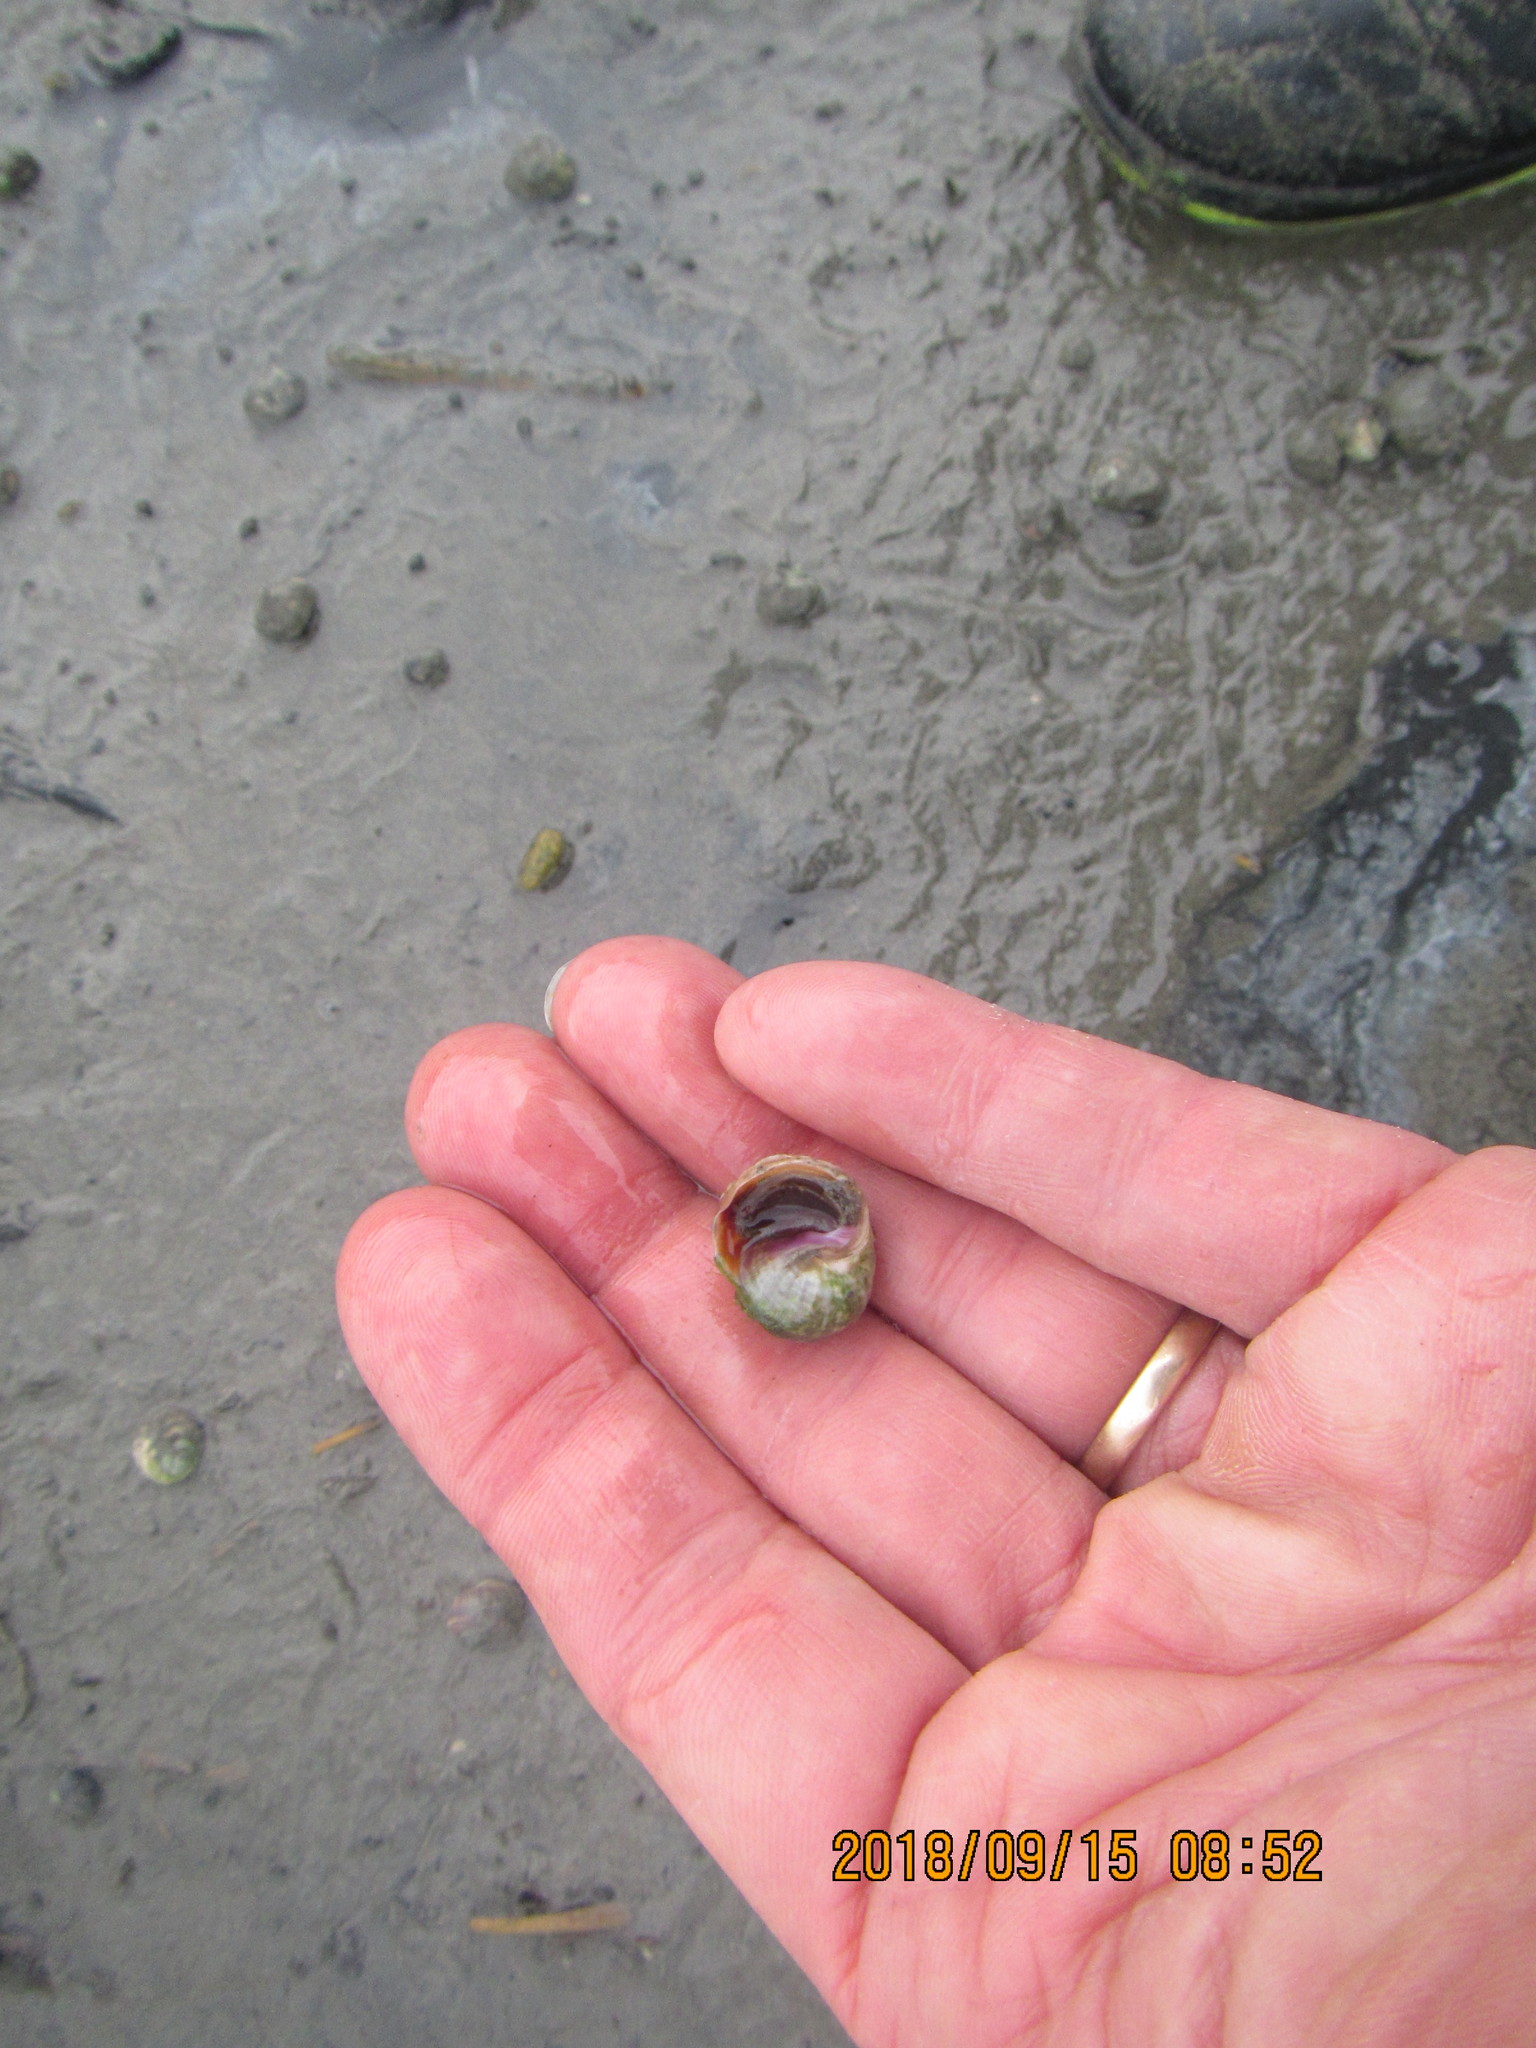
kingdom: Animalia
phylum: Mollusca
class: Gastropoda
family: Amphibolidae
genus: Amphibola
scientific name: Amphibola crenata
